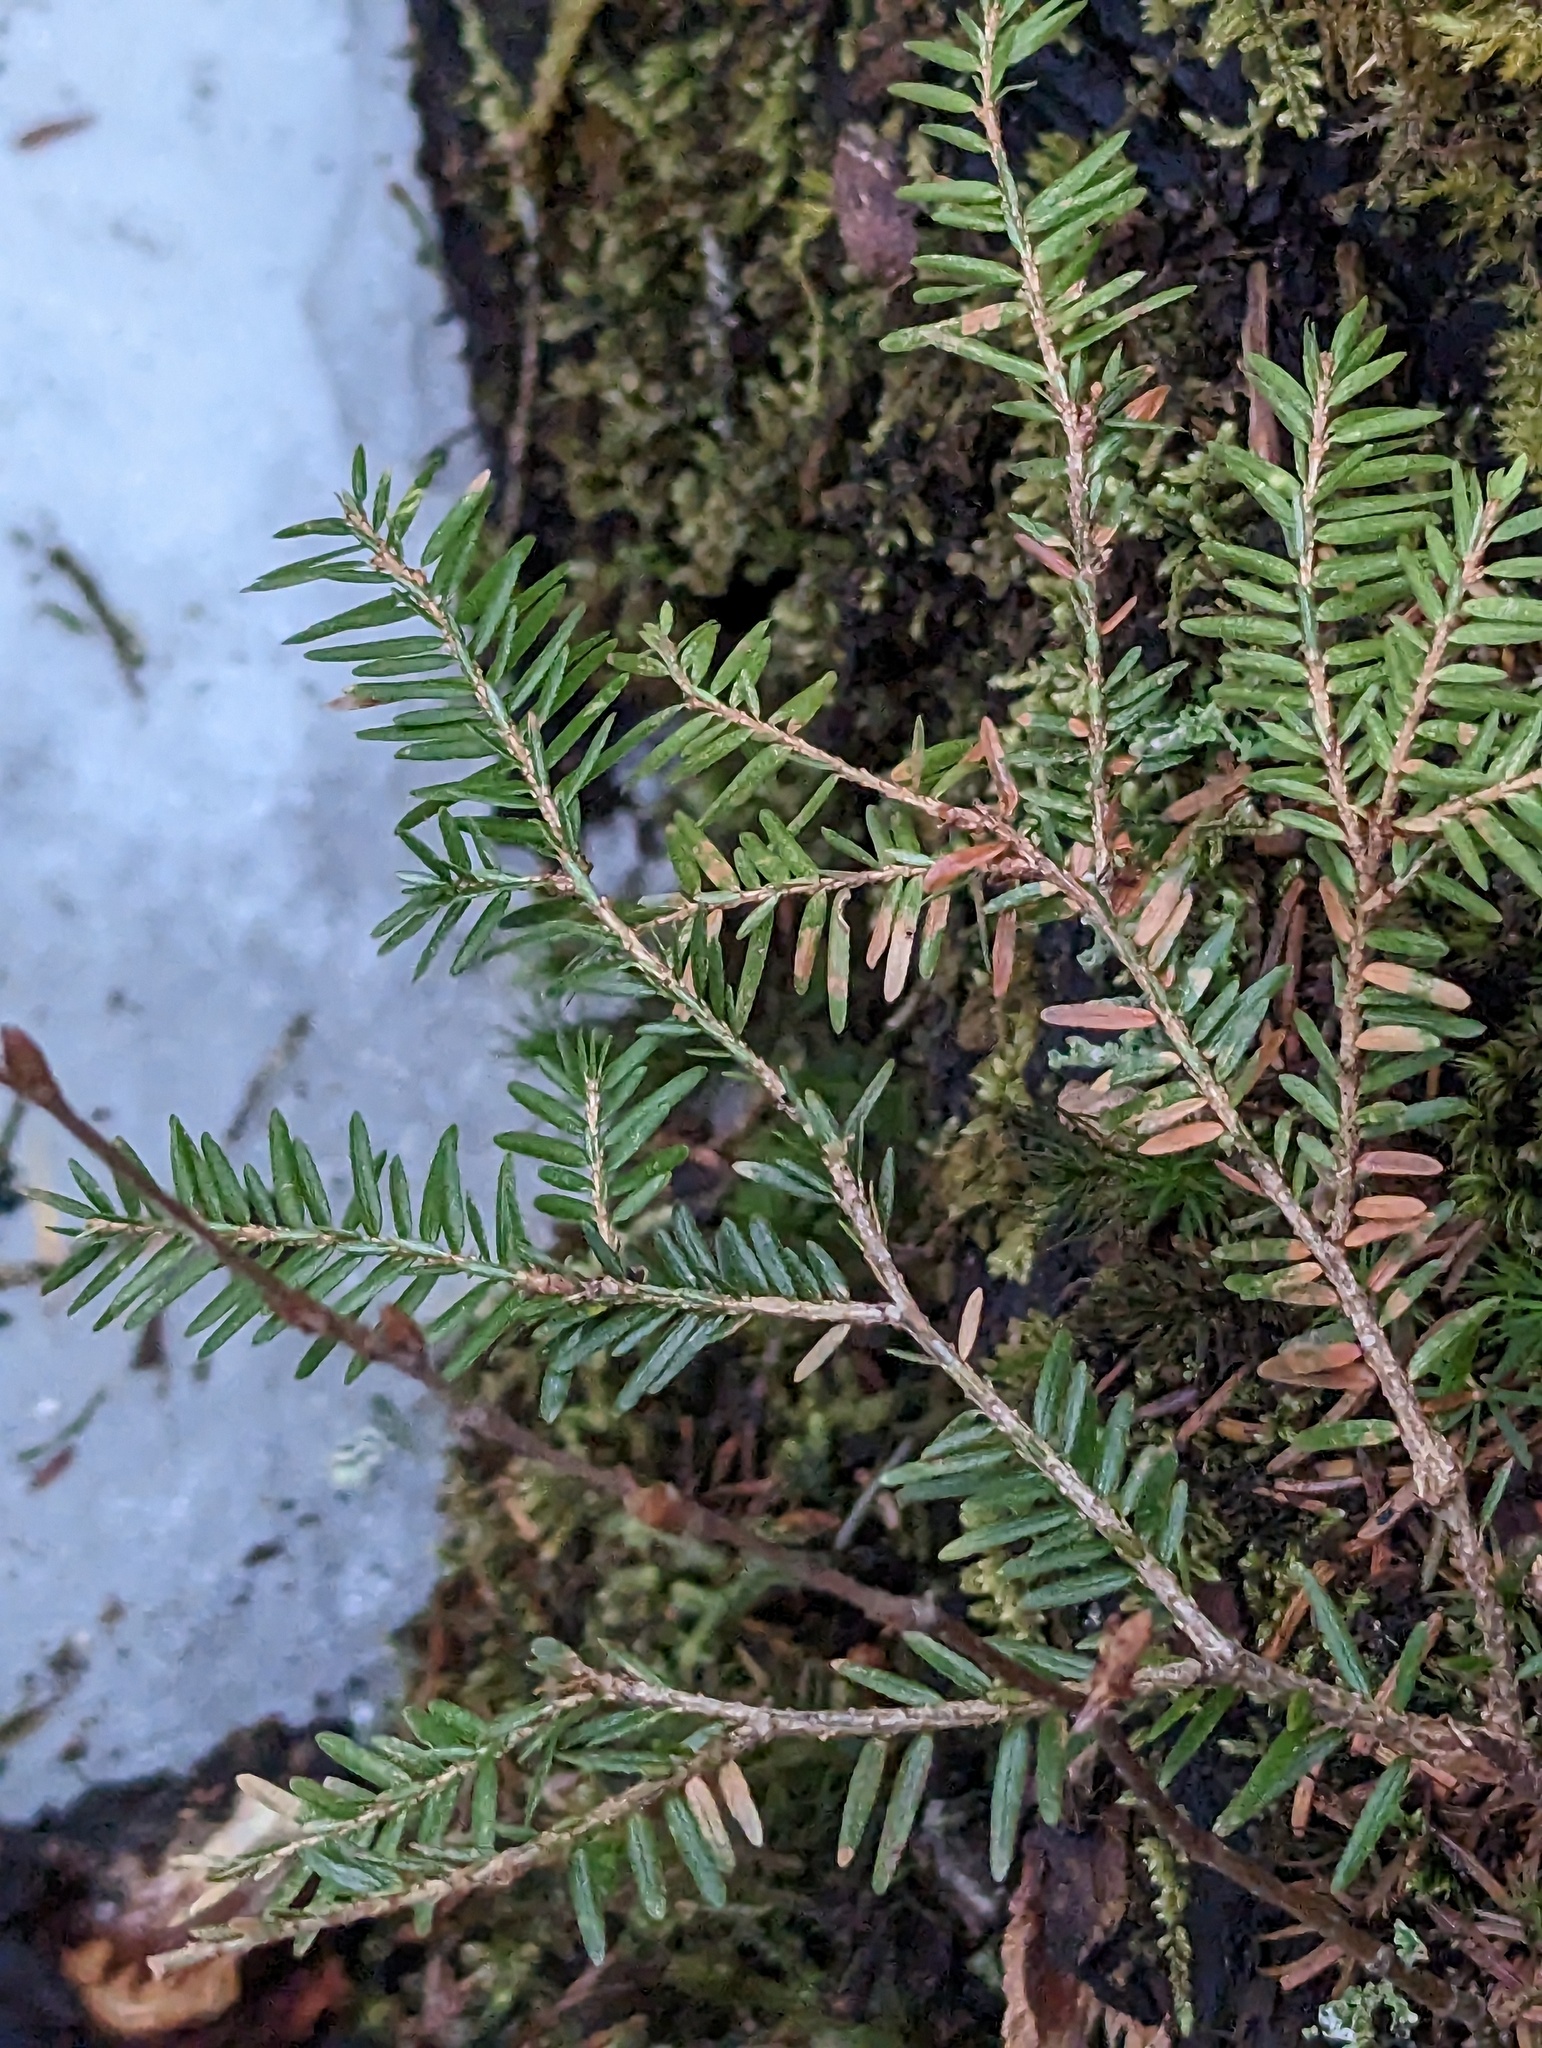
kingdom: Plantae
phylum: Tracheophyta
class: Pinopsida
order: Pinales
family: Pinaceae
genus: Tsuga
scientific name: Tsuga canadensis
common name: Eastern hemlock
